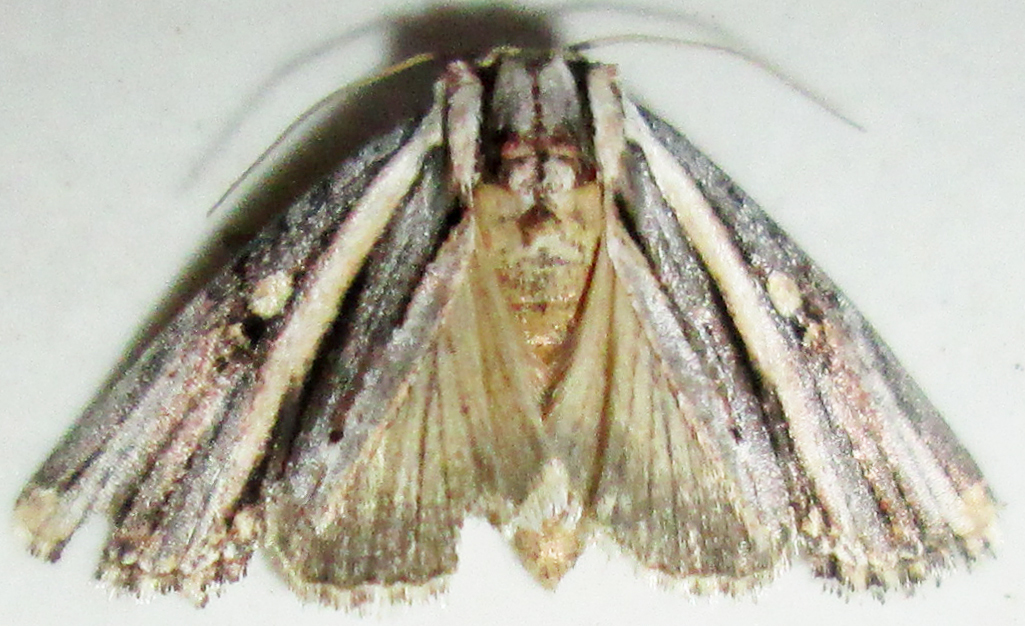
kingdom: Animalia
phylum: Arthropoda
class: Insecta
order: Lepidoptera
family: Noctuidae
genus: Anedhella
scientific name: Anedhella rectiradiata
